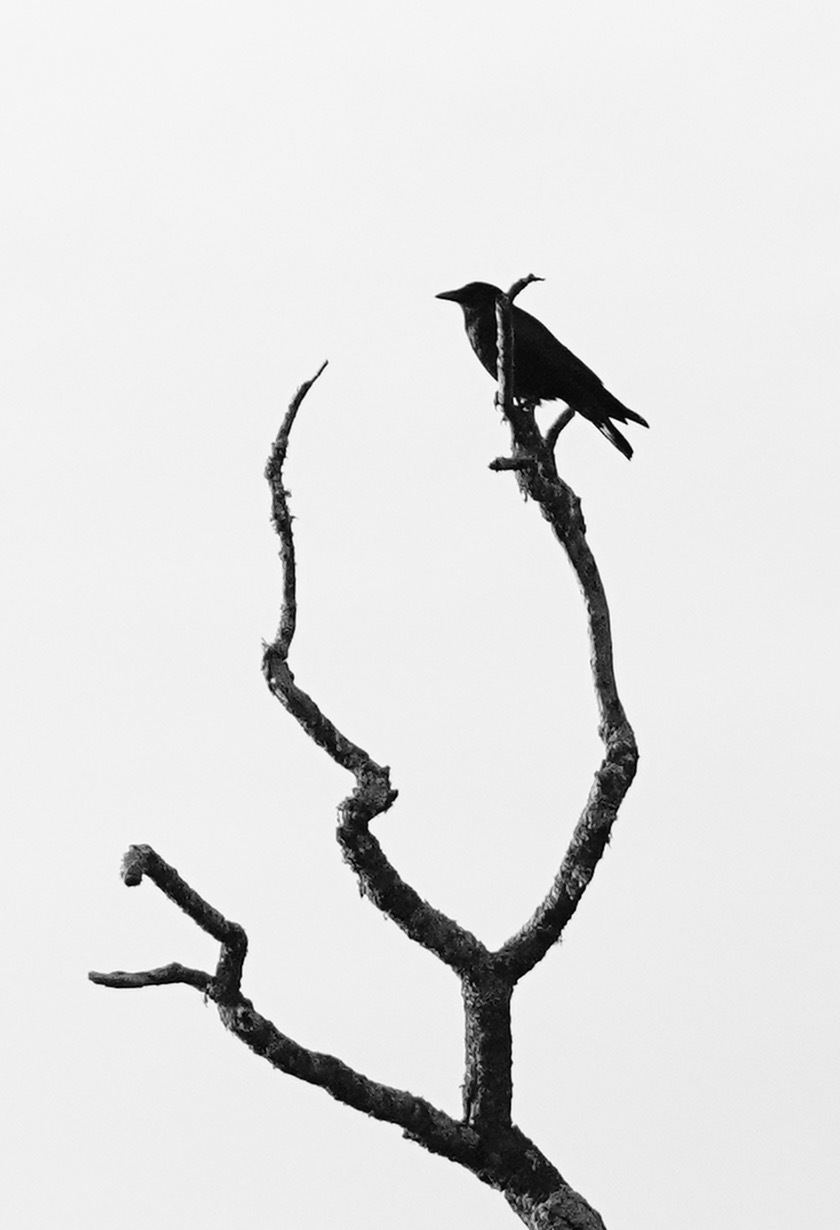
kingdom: Animalia
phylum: Chordata
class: Aves
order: Passeriformes
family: Corvidae
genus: Corvus
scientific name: Corvus brachyrhynchos
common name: American crow
